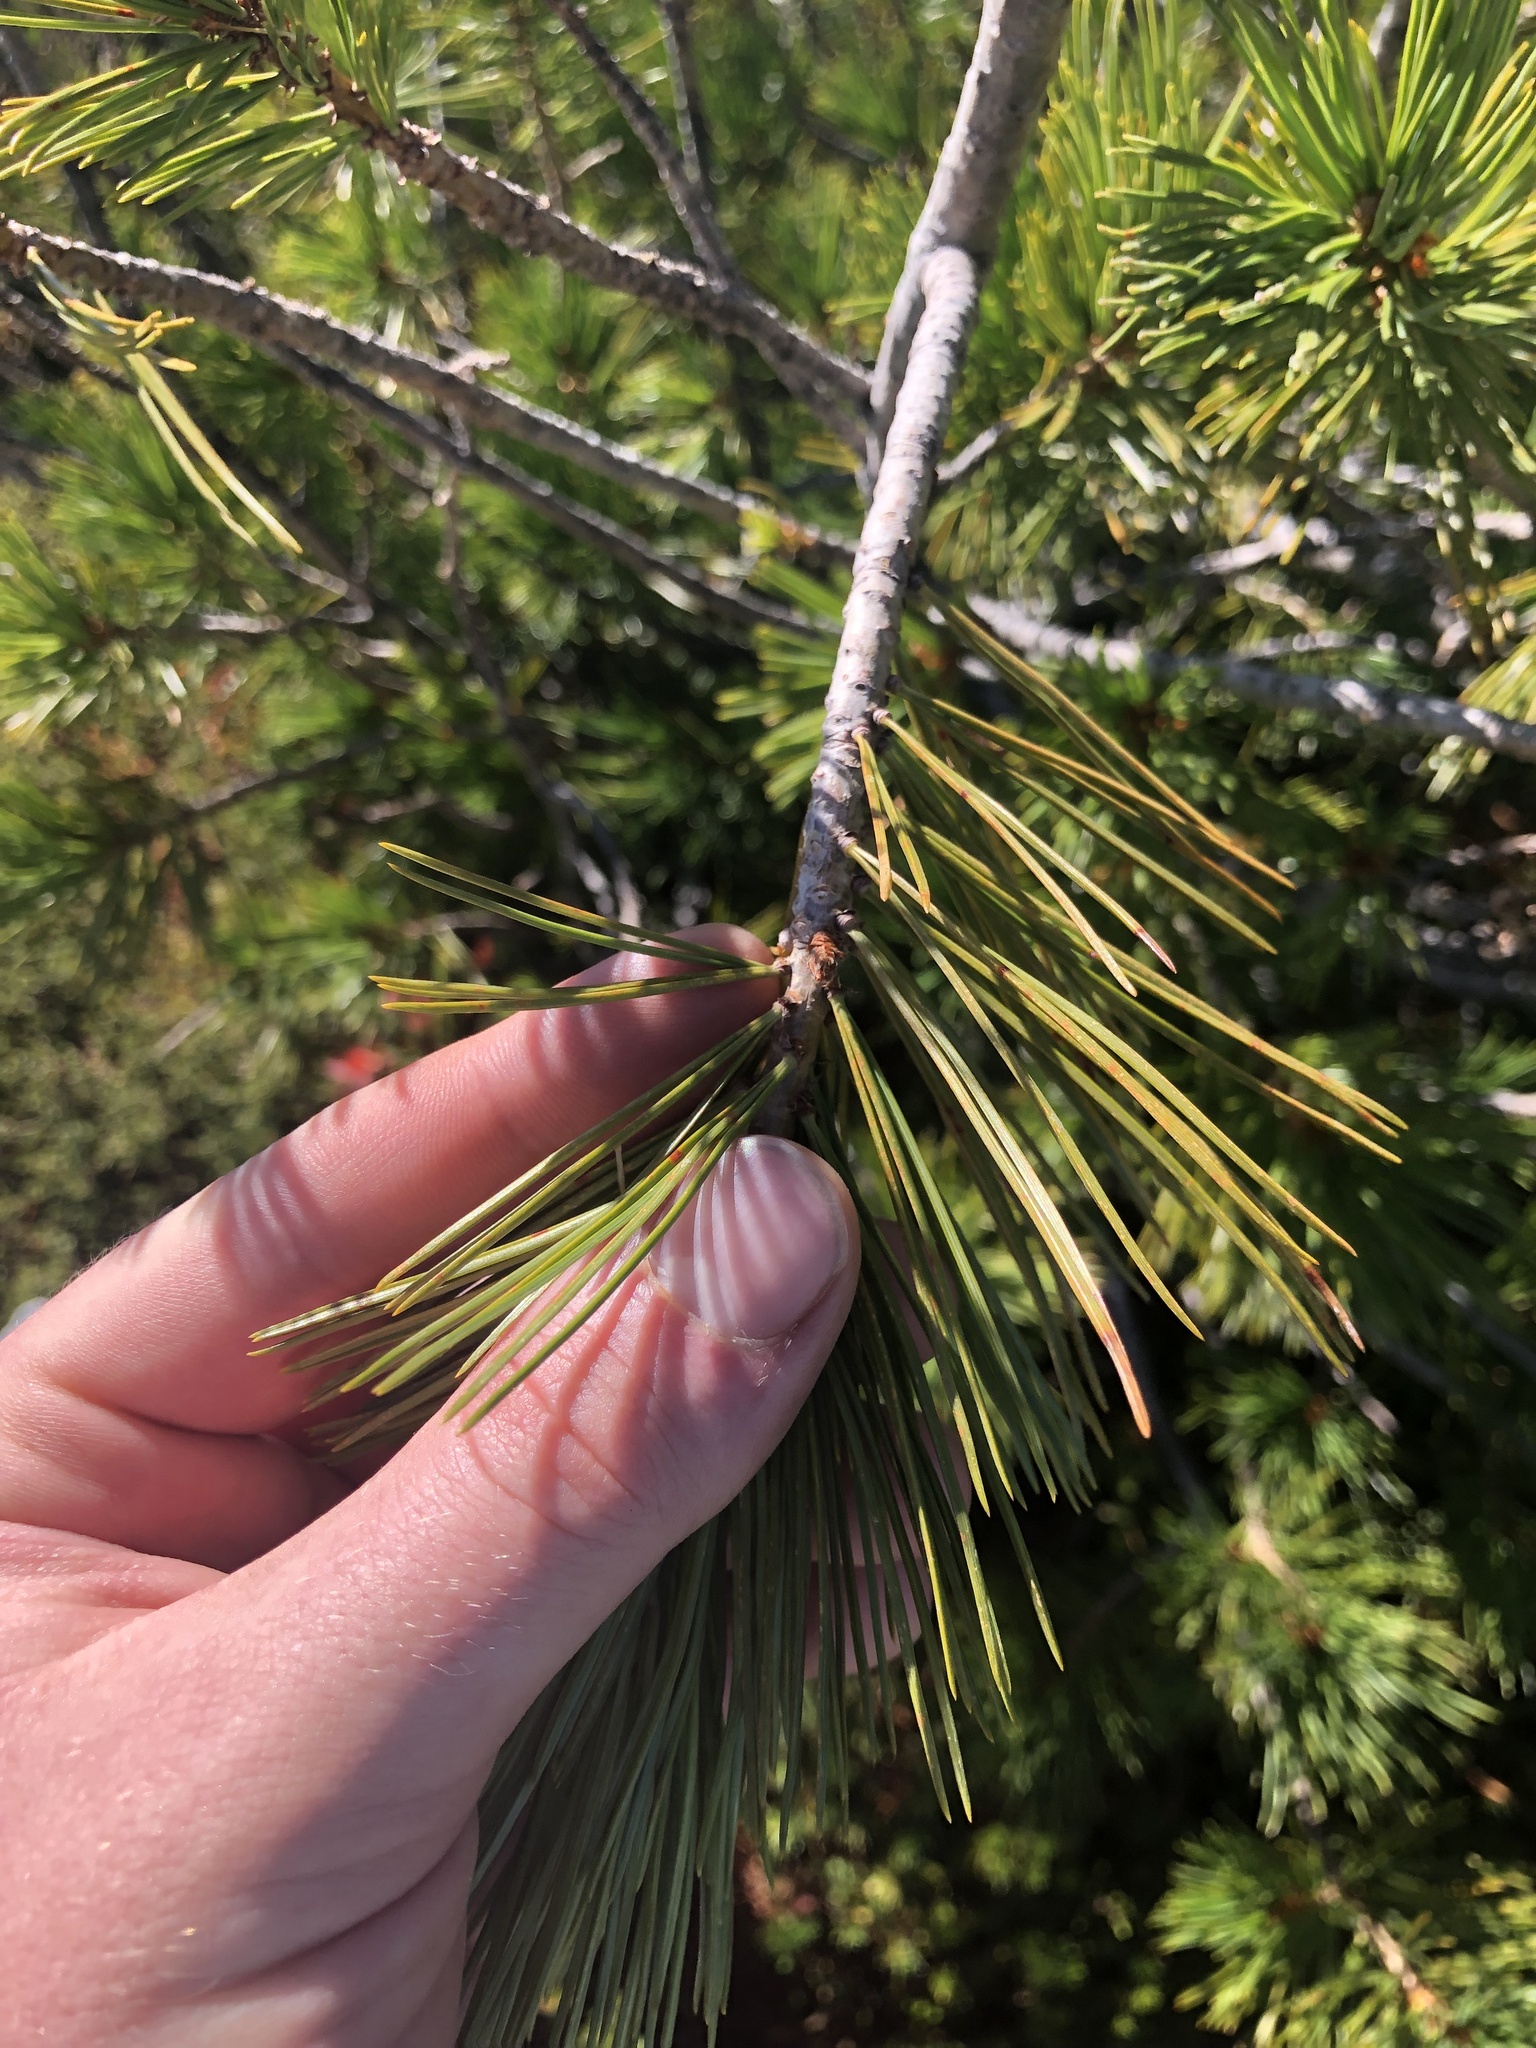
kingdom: Plantae
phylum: Tracheophyta
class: Pinopsida
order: Pinales
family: Pinaceae
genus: Pinus
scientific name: Pinus albicaulis
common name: Whitebark pine
